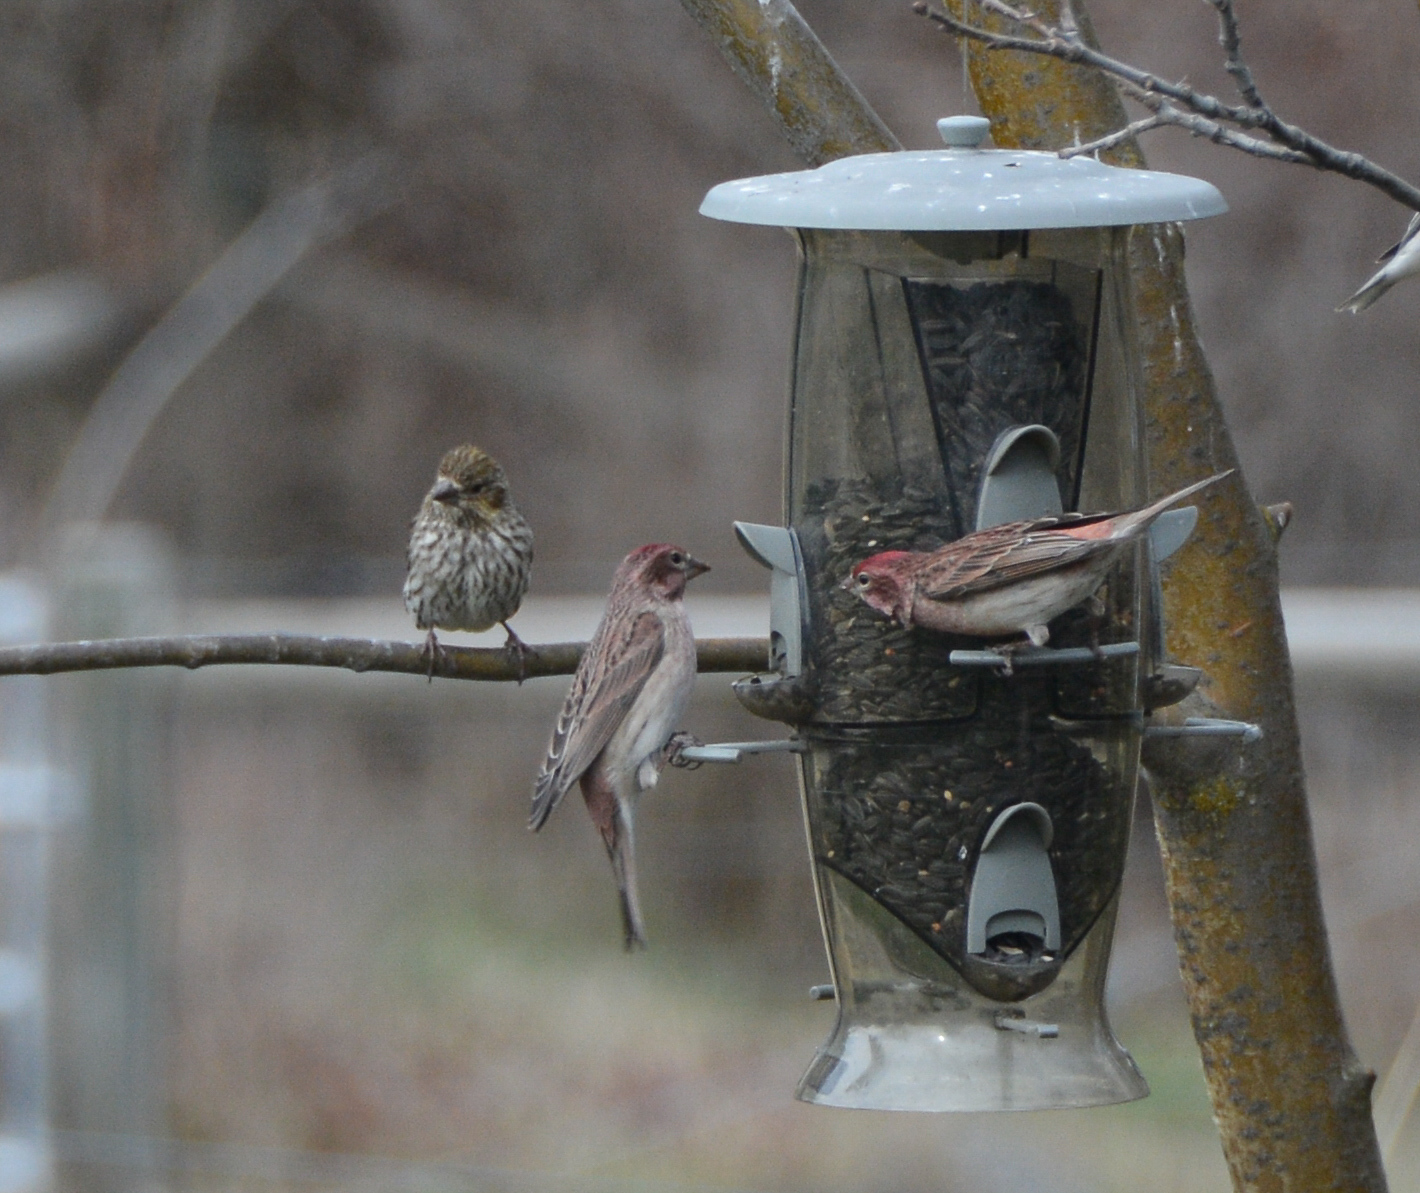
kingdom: Animalia
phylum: Chordata
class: Aves
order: Passeriformes
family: Fringillidae
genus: Haemorhous
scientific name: Haemorhous cassinii
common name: Cassin's finch
